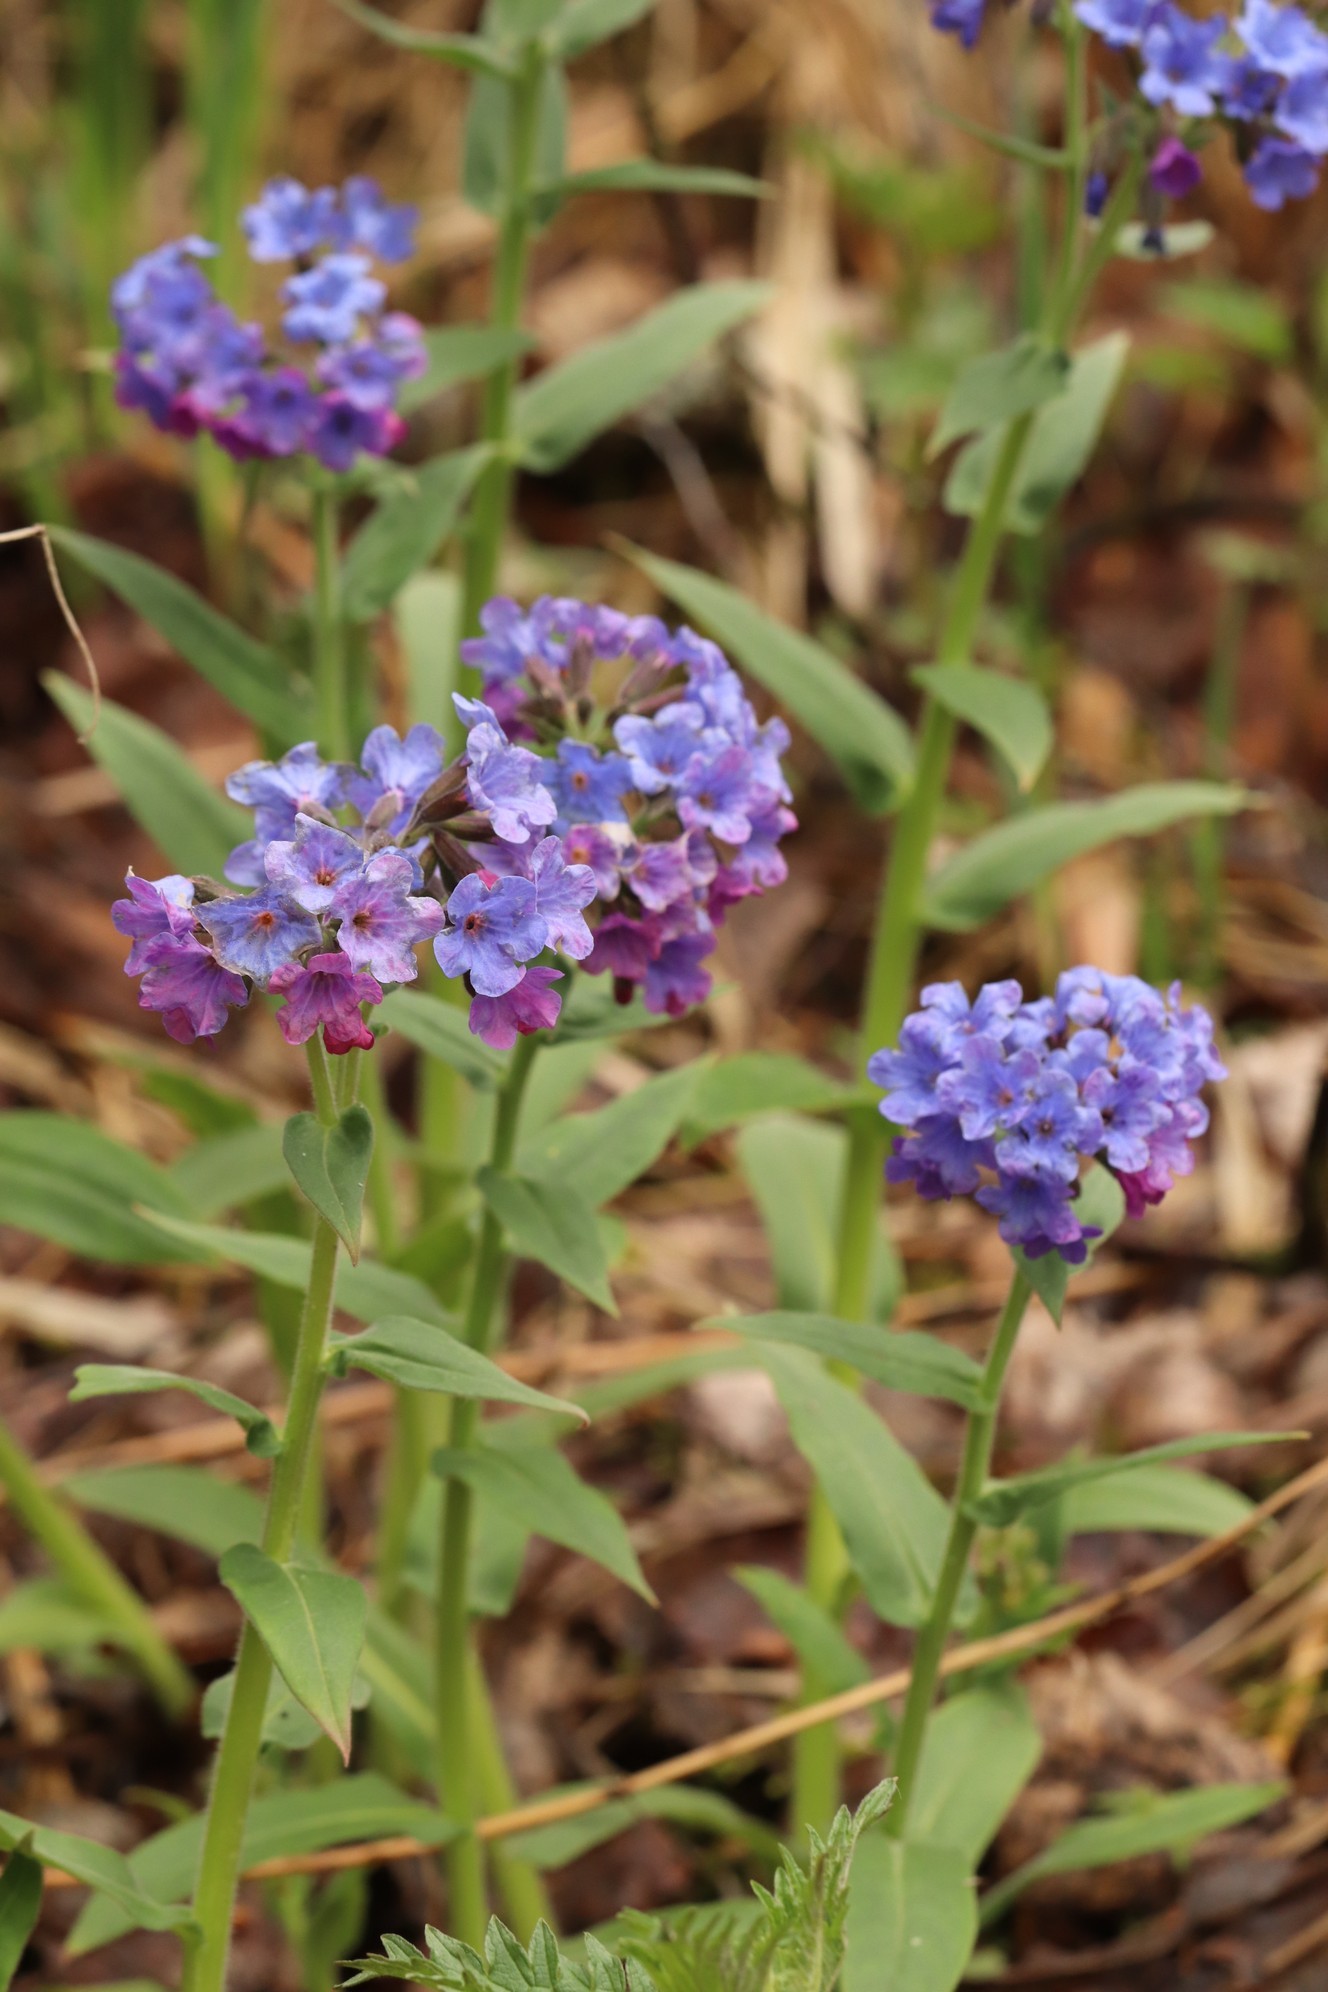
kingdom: Plantae
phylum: Tracheophyta
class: Magnoliopsida
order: Boraginales
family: Boraginaceae
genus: Pulmonaria
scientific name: Pulmonaria mollis
